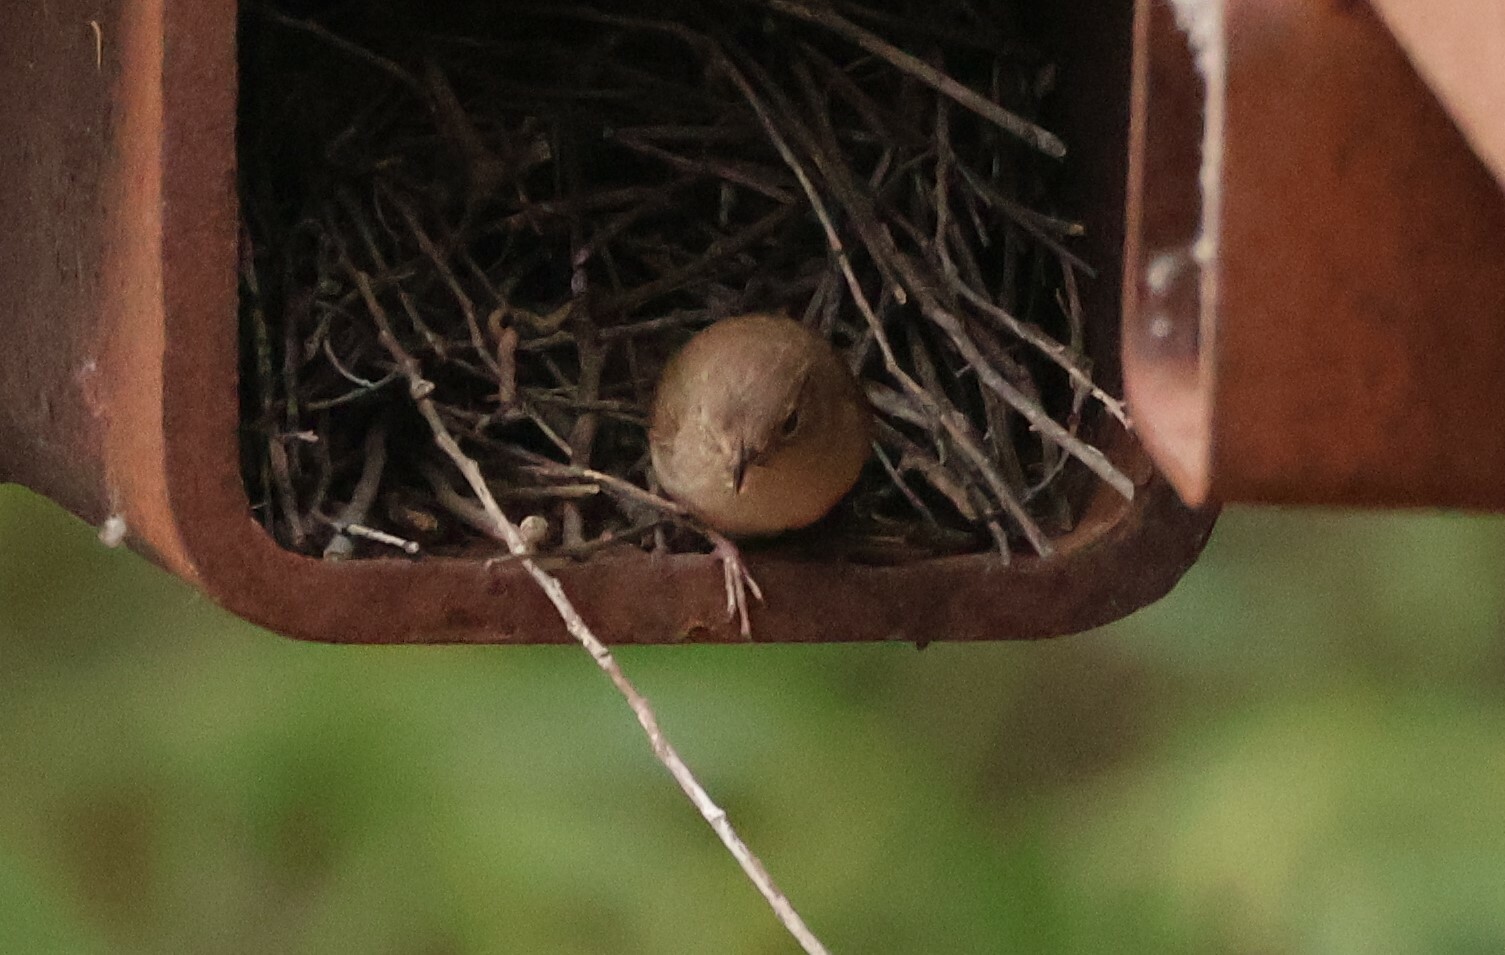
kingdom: Animalia
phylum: Chordata
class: Aves
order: Passeriformes
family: Troglodytidae
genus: Troglodytes
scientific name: Troglodytes aedon
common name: House wren
